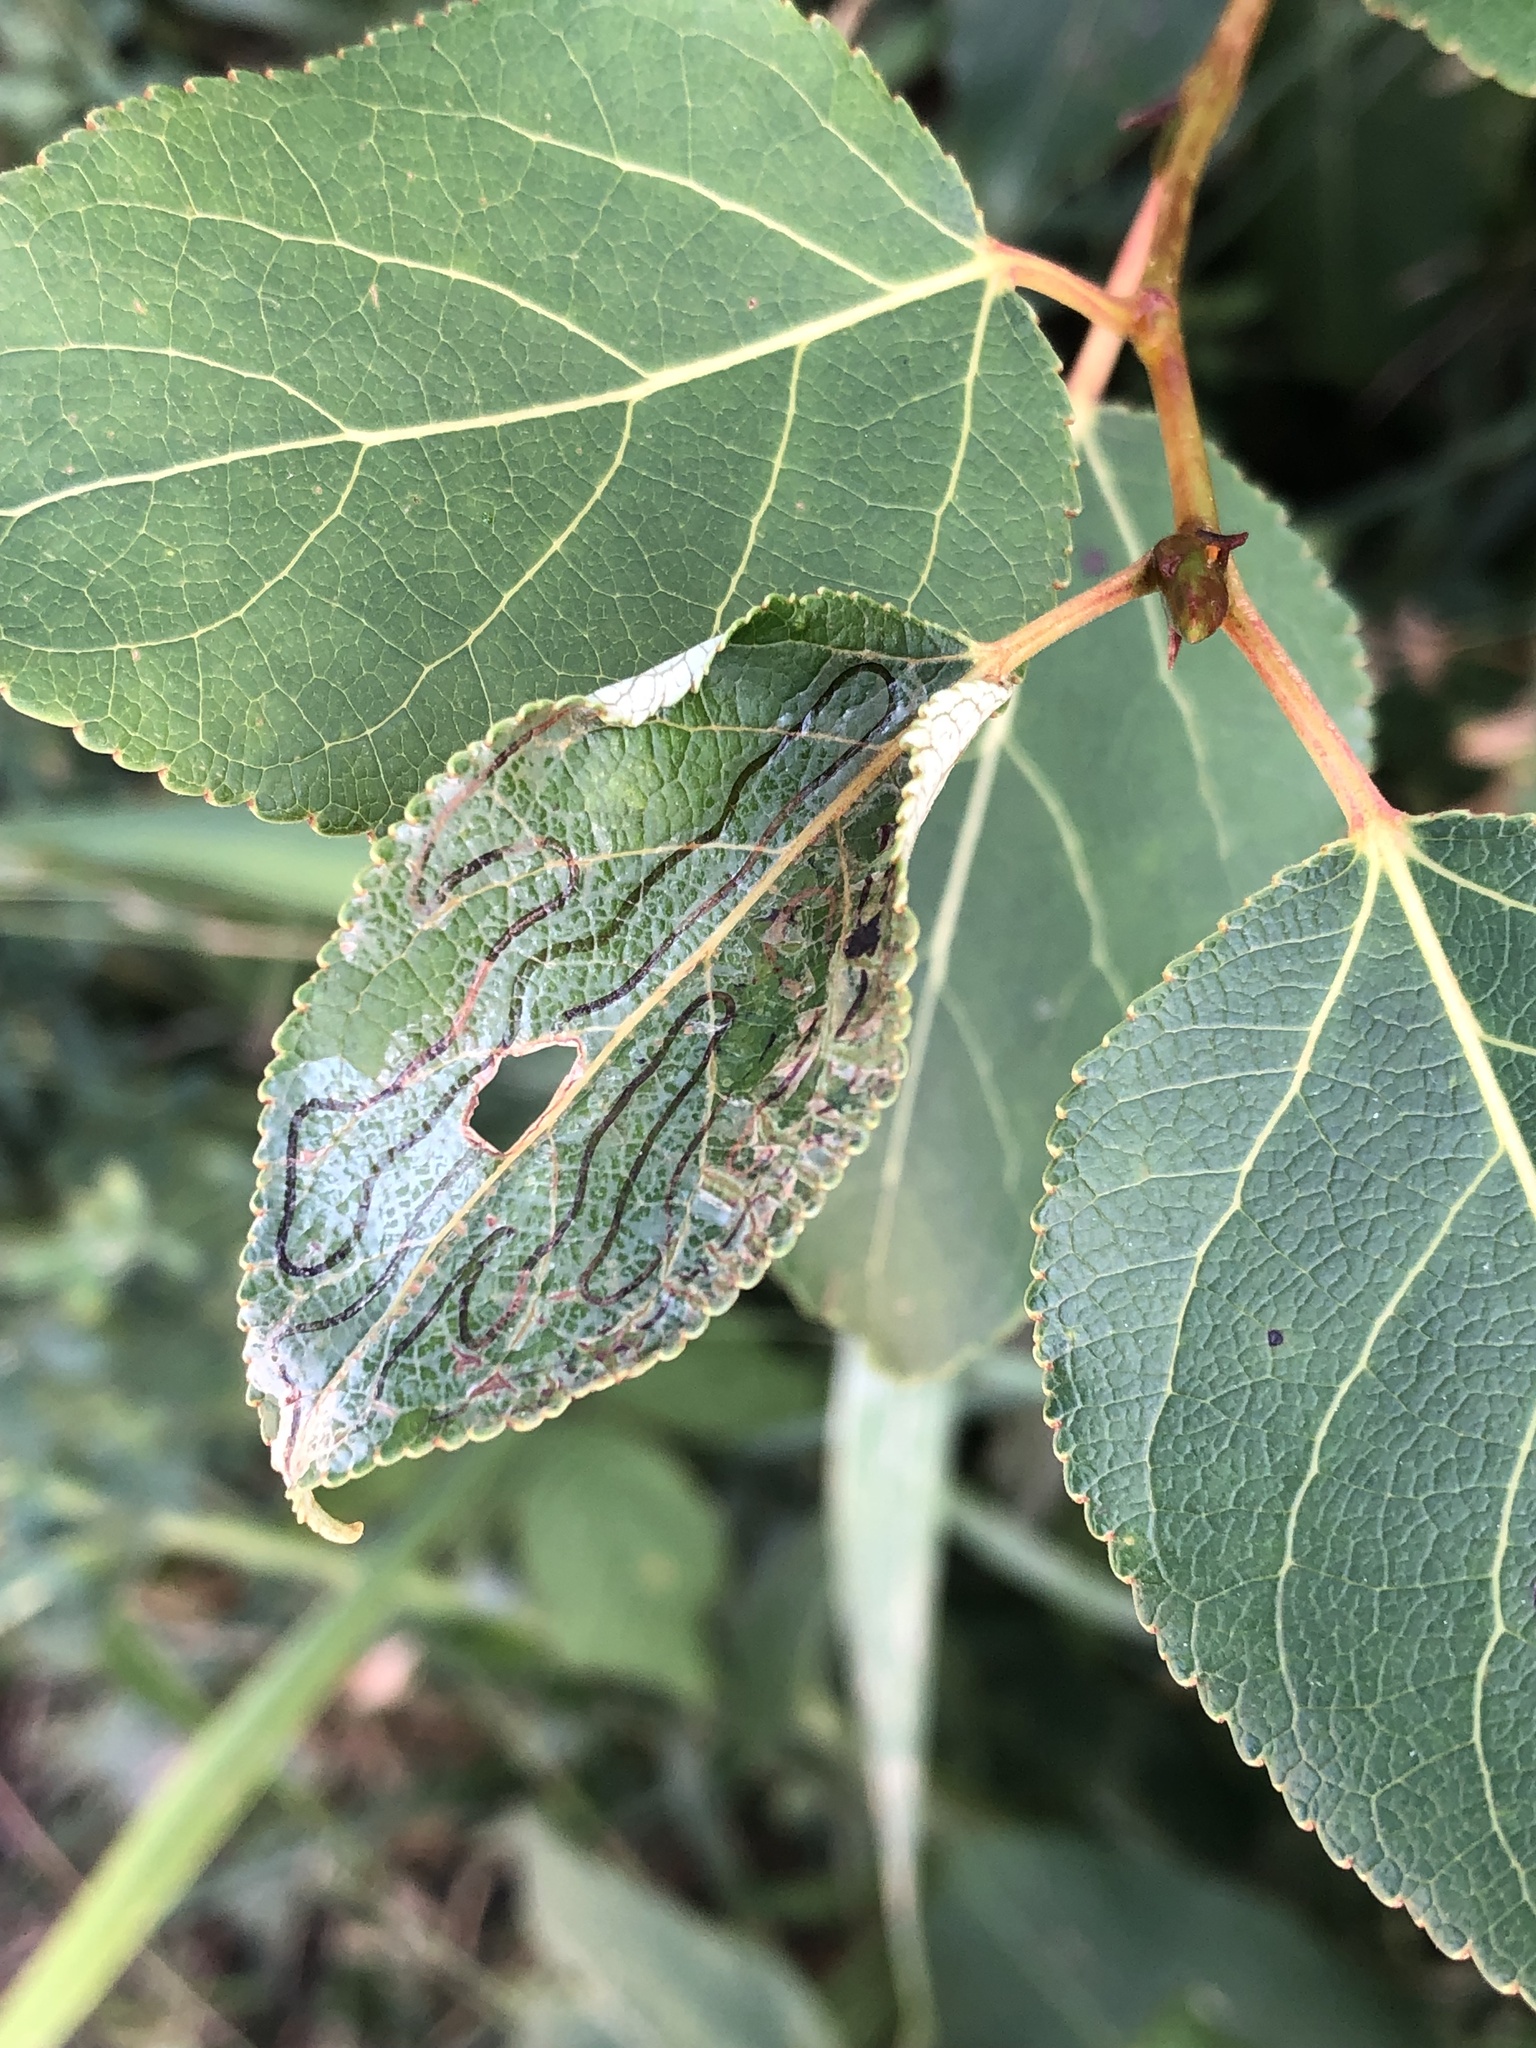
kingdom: Animalia
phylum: Arthropoda
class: Insecta
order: Lepidoptera
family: Gracillariidae
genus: Phyllocnistis
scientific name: Phyllocnistis populiella
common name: Aspen serpentine leafminer moth
